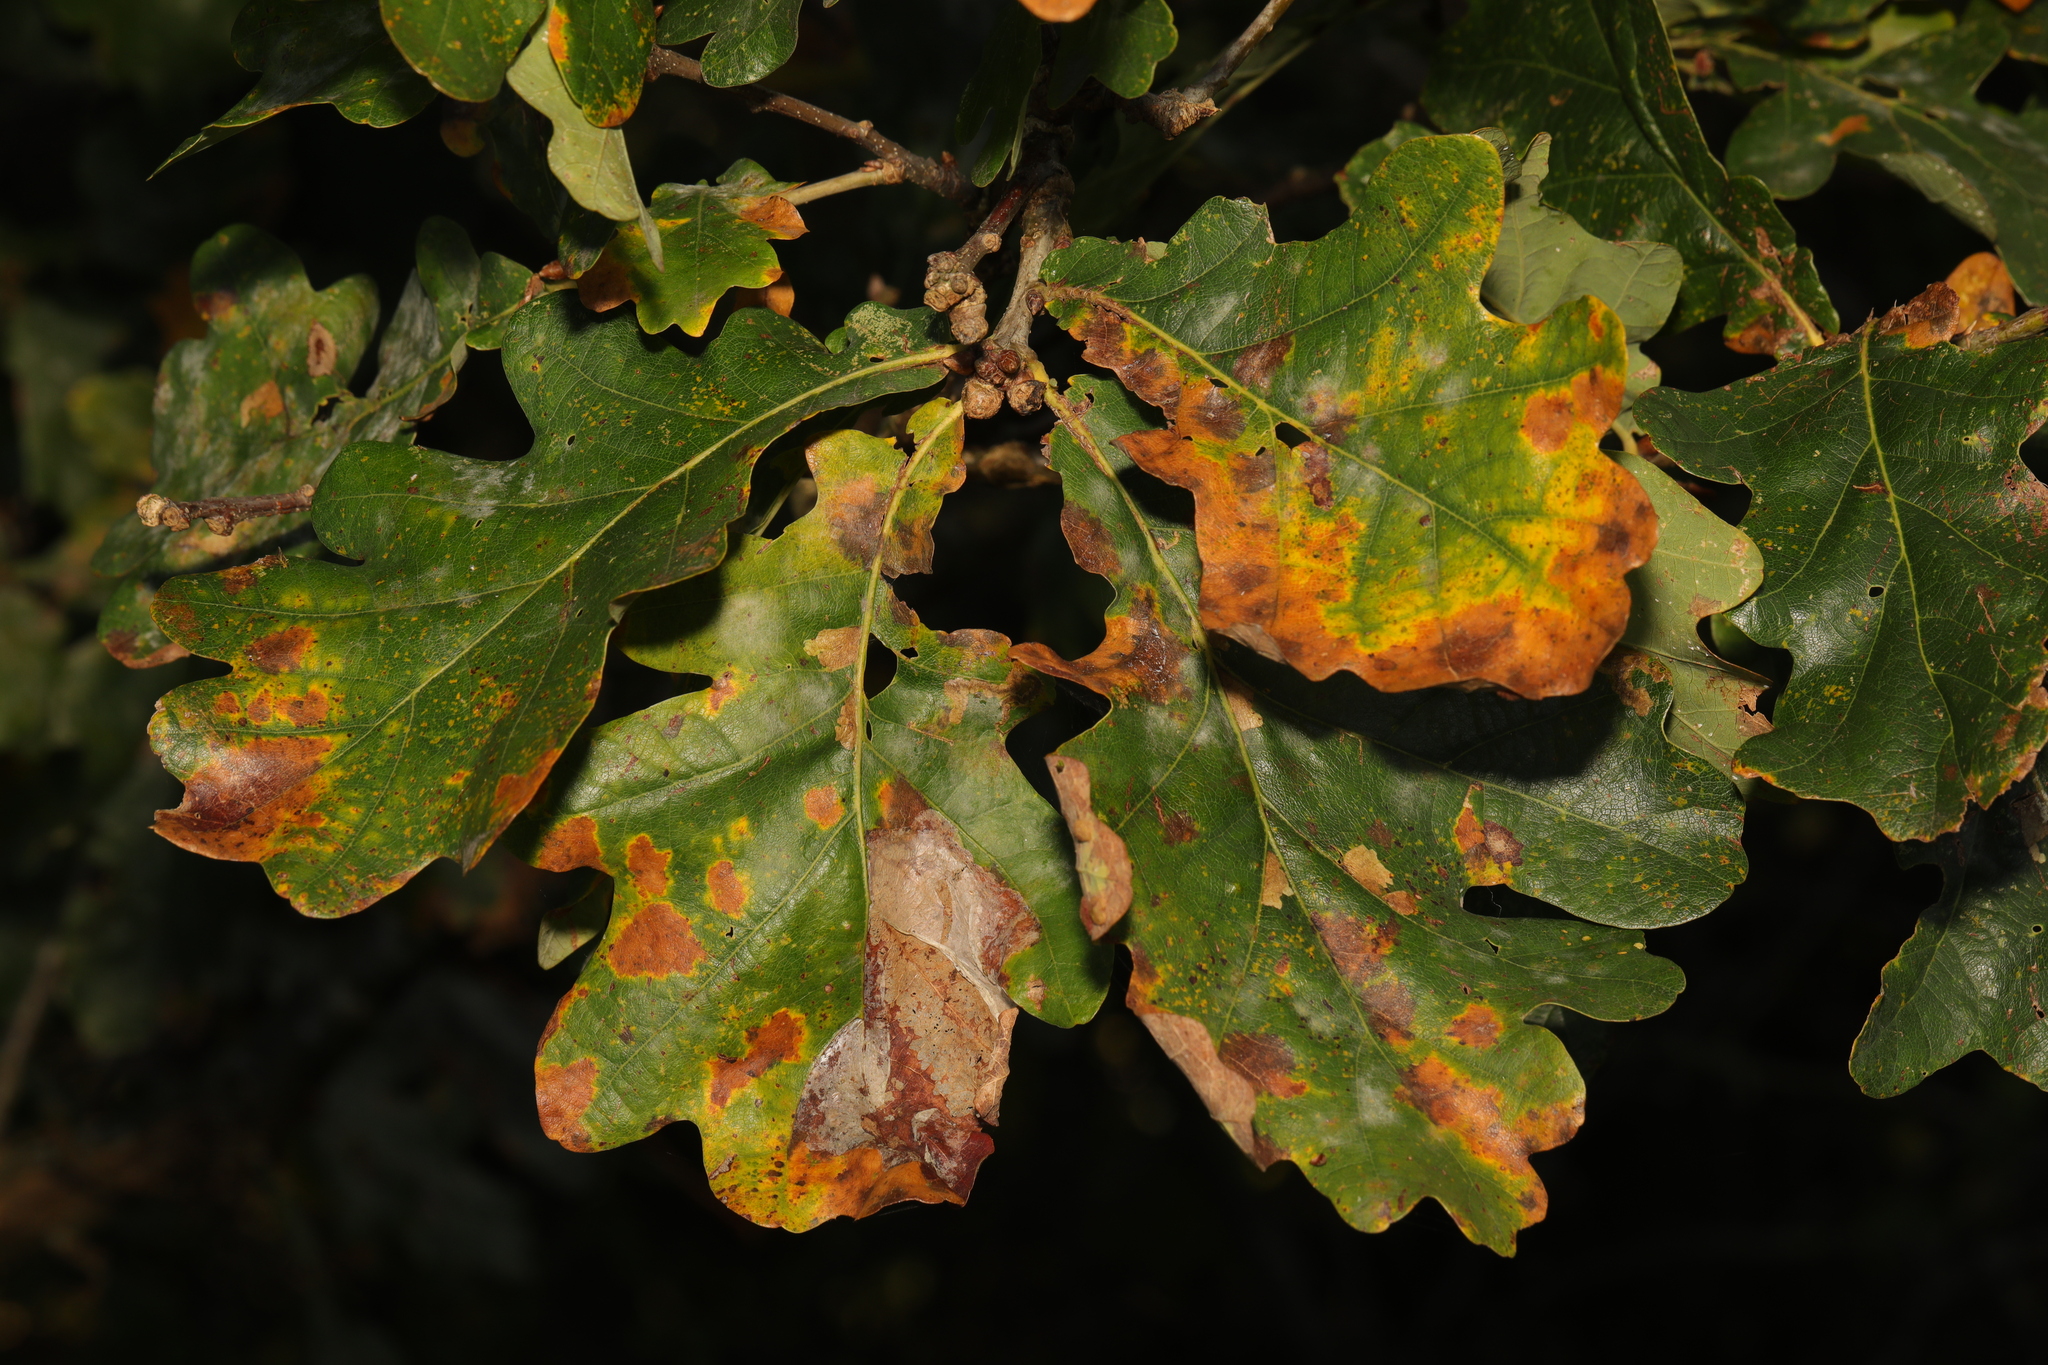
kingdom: Plantae
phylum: Tracheophyta
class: Magnoliopsida
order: Fagales
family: Fagaceae
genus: Quercus
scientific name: Quercus robur
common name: Pedunculate oak
